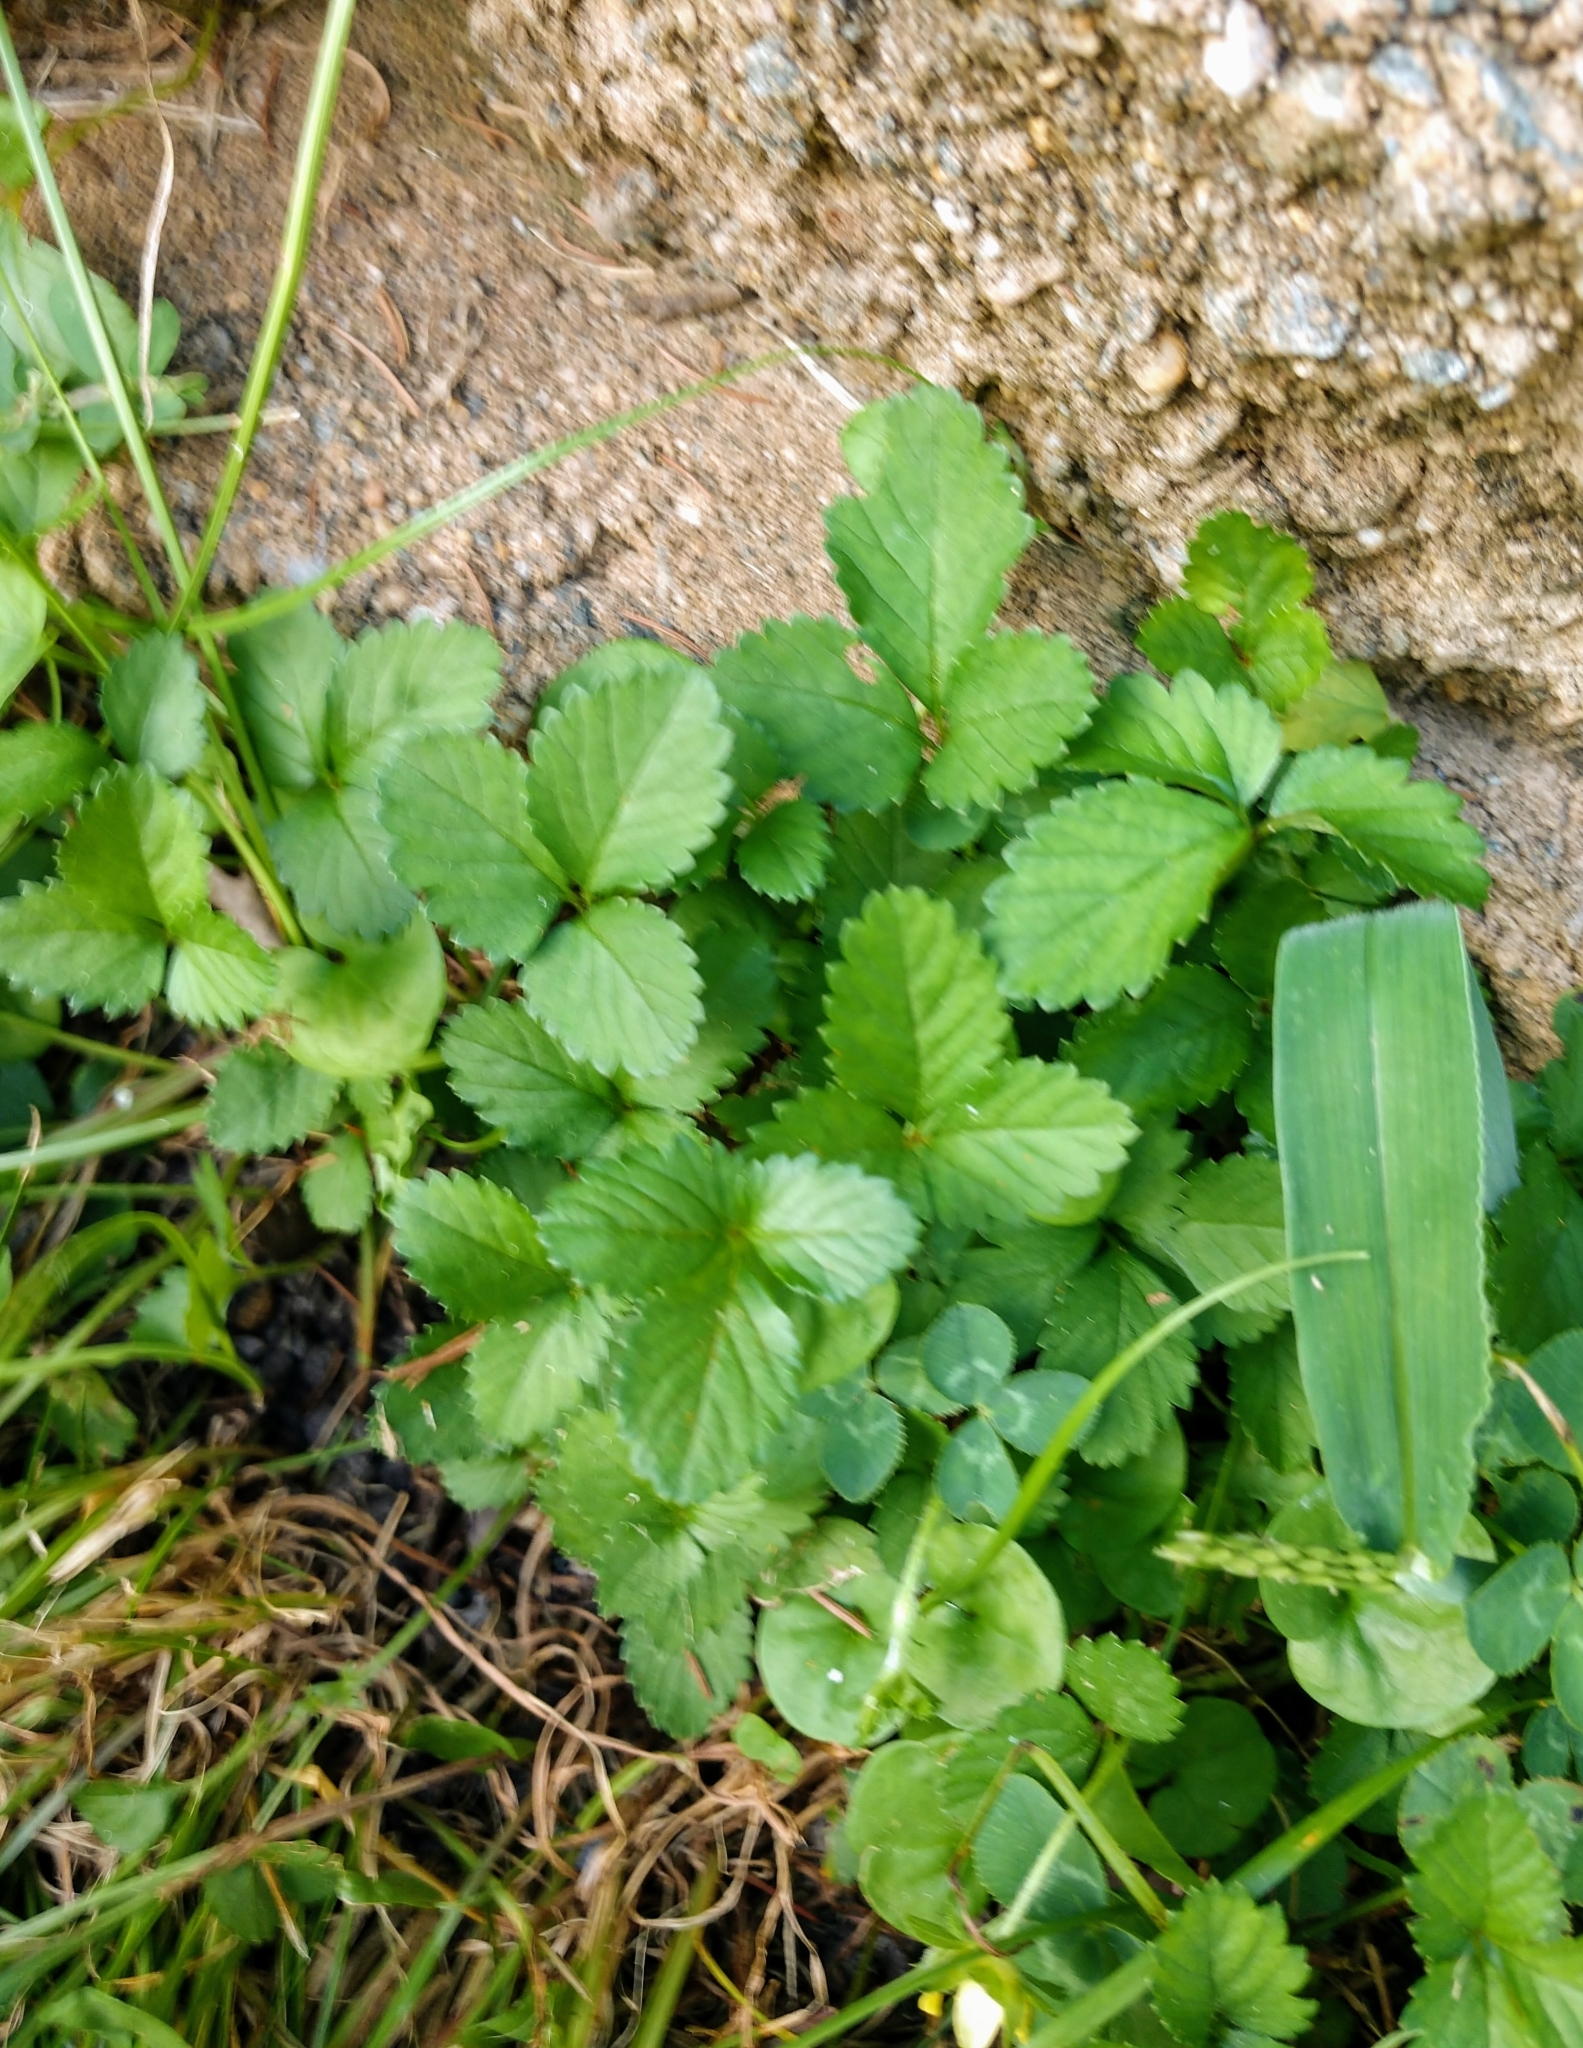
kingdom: Plantae
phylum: Tracheophyta
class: Magnoliopsida
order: Rosales
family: Rosaceae
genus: Potentilla
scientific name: Potentilla indica
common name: Yellow-flowered strawberry
